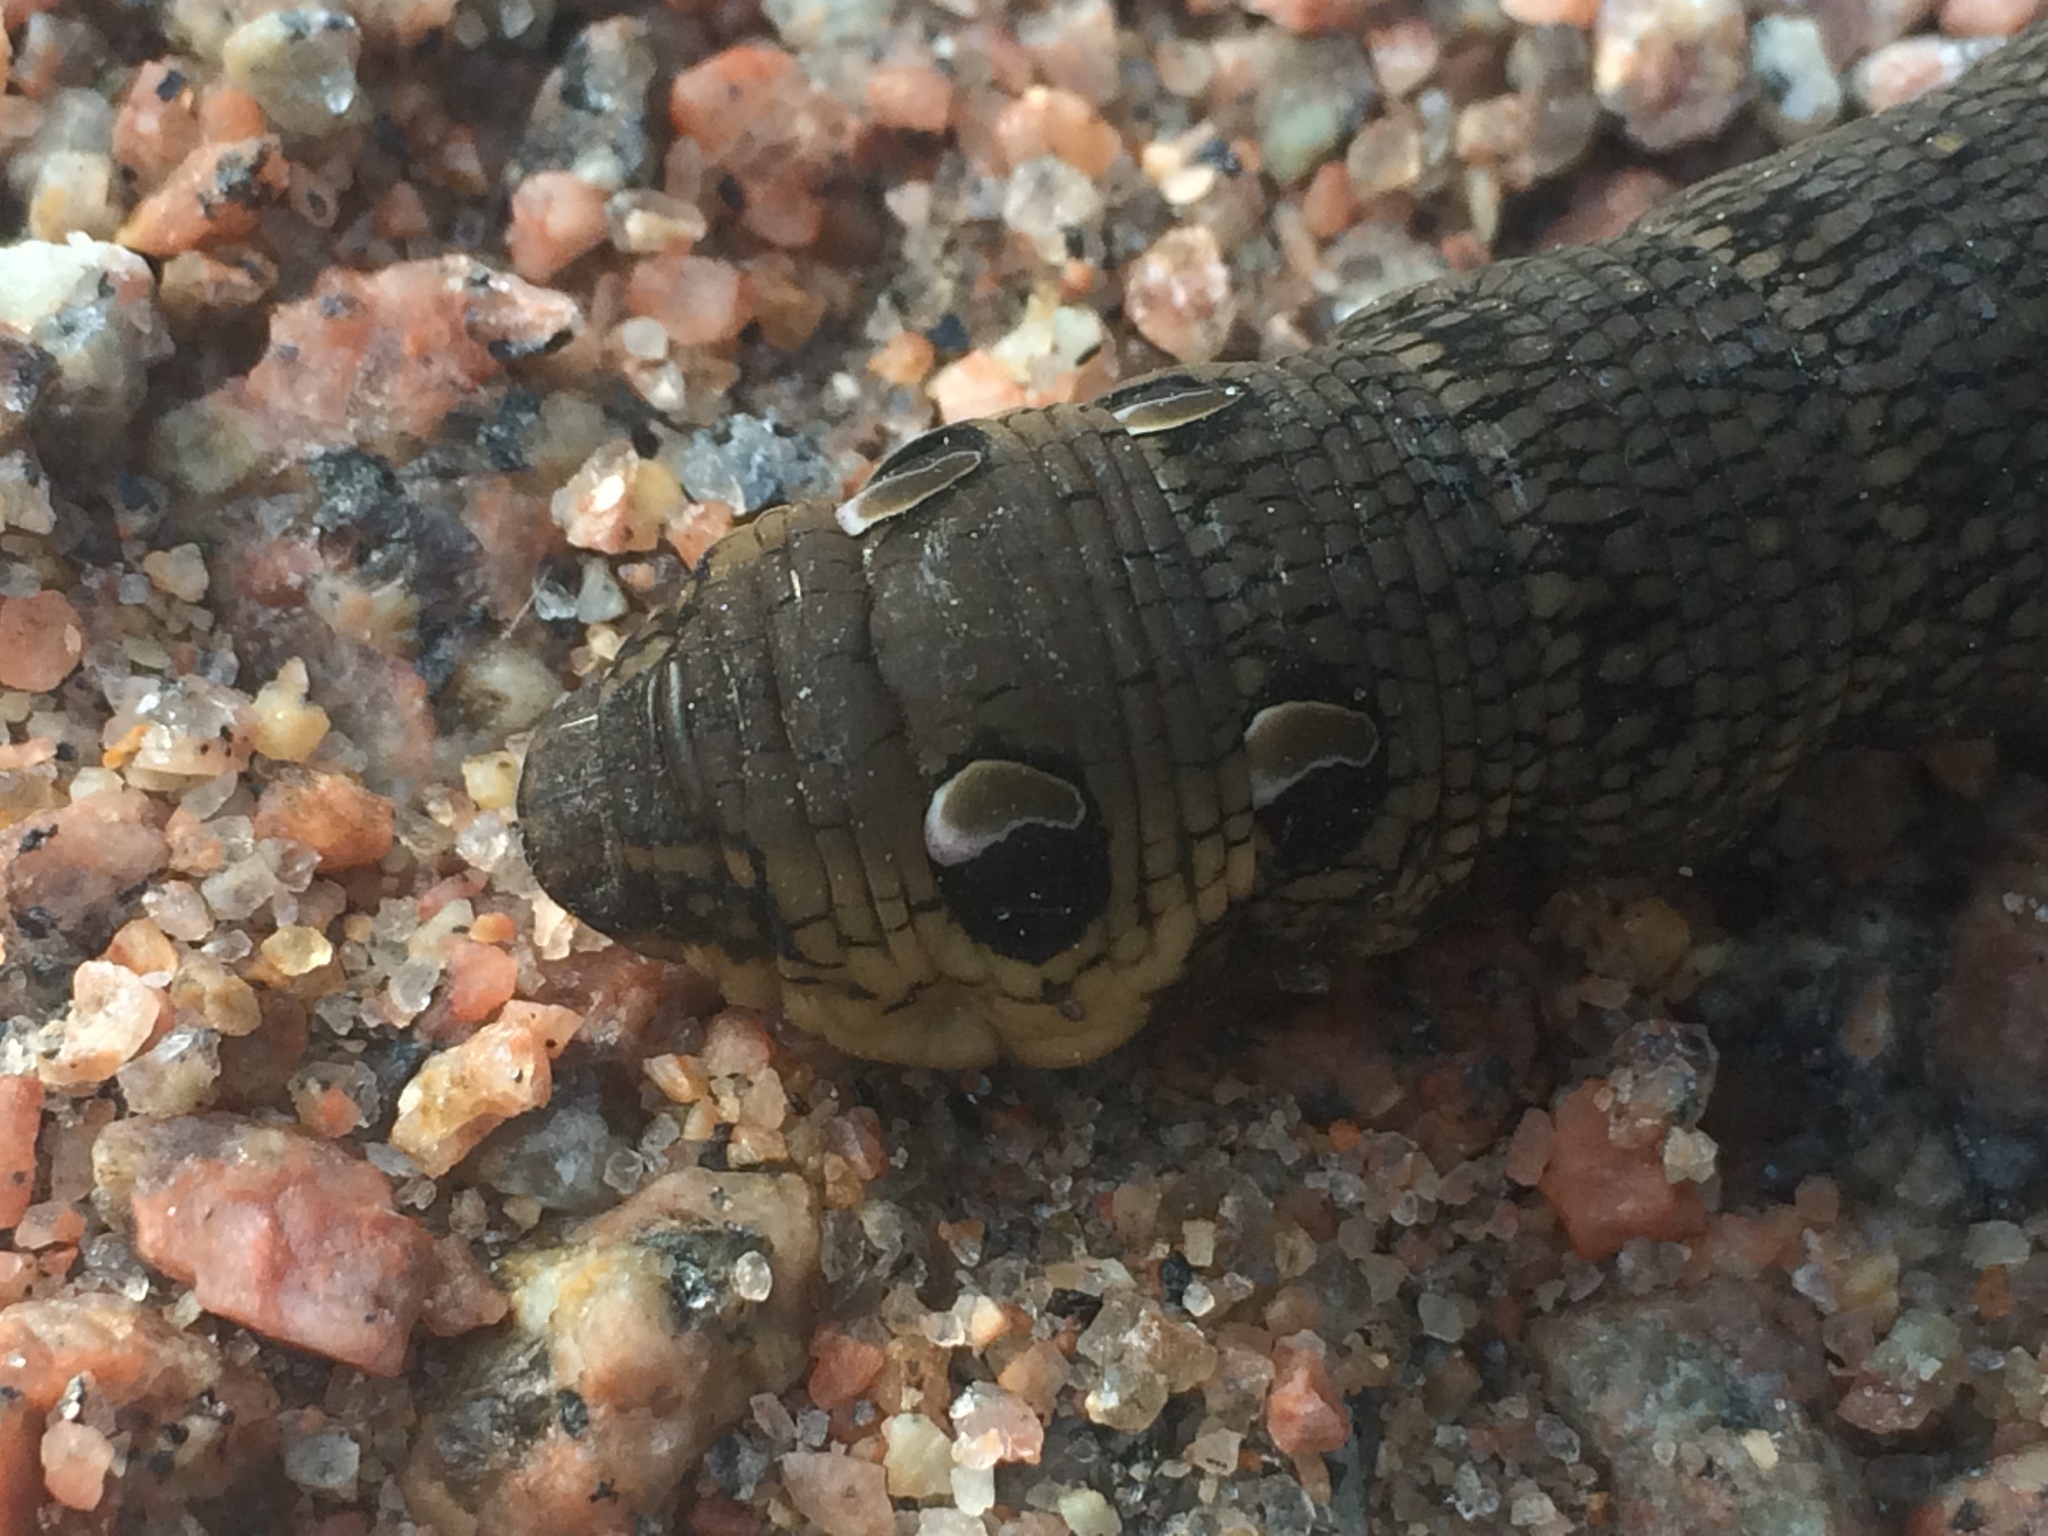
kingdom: Animalia
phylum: Arthropoda
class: Insecta
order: Lepidoptera
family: Sphingidae
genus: Deilephila
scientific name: Deilephila elpenor
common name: Elephant hawk-moth
